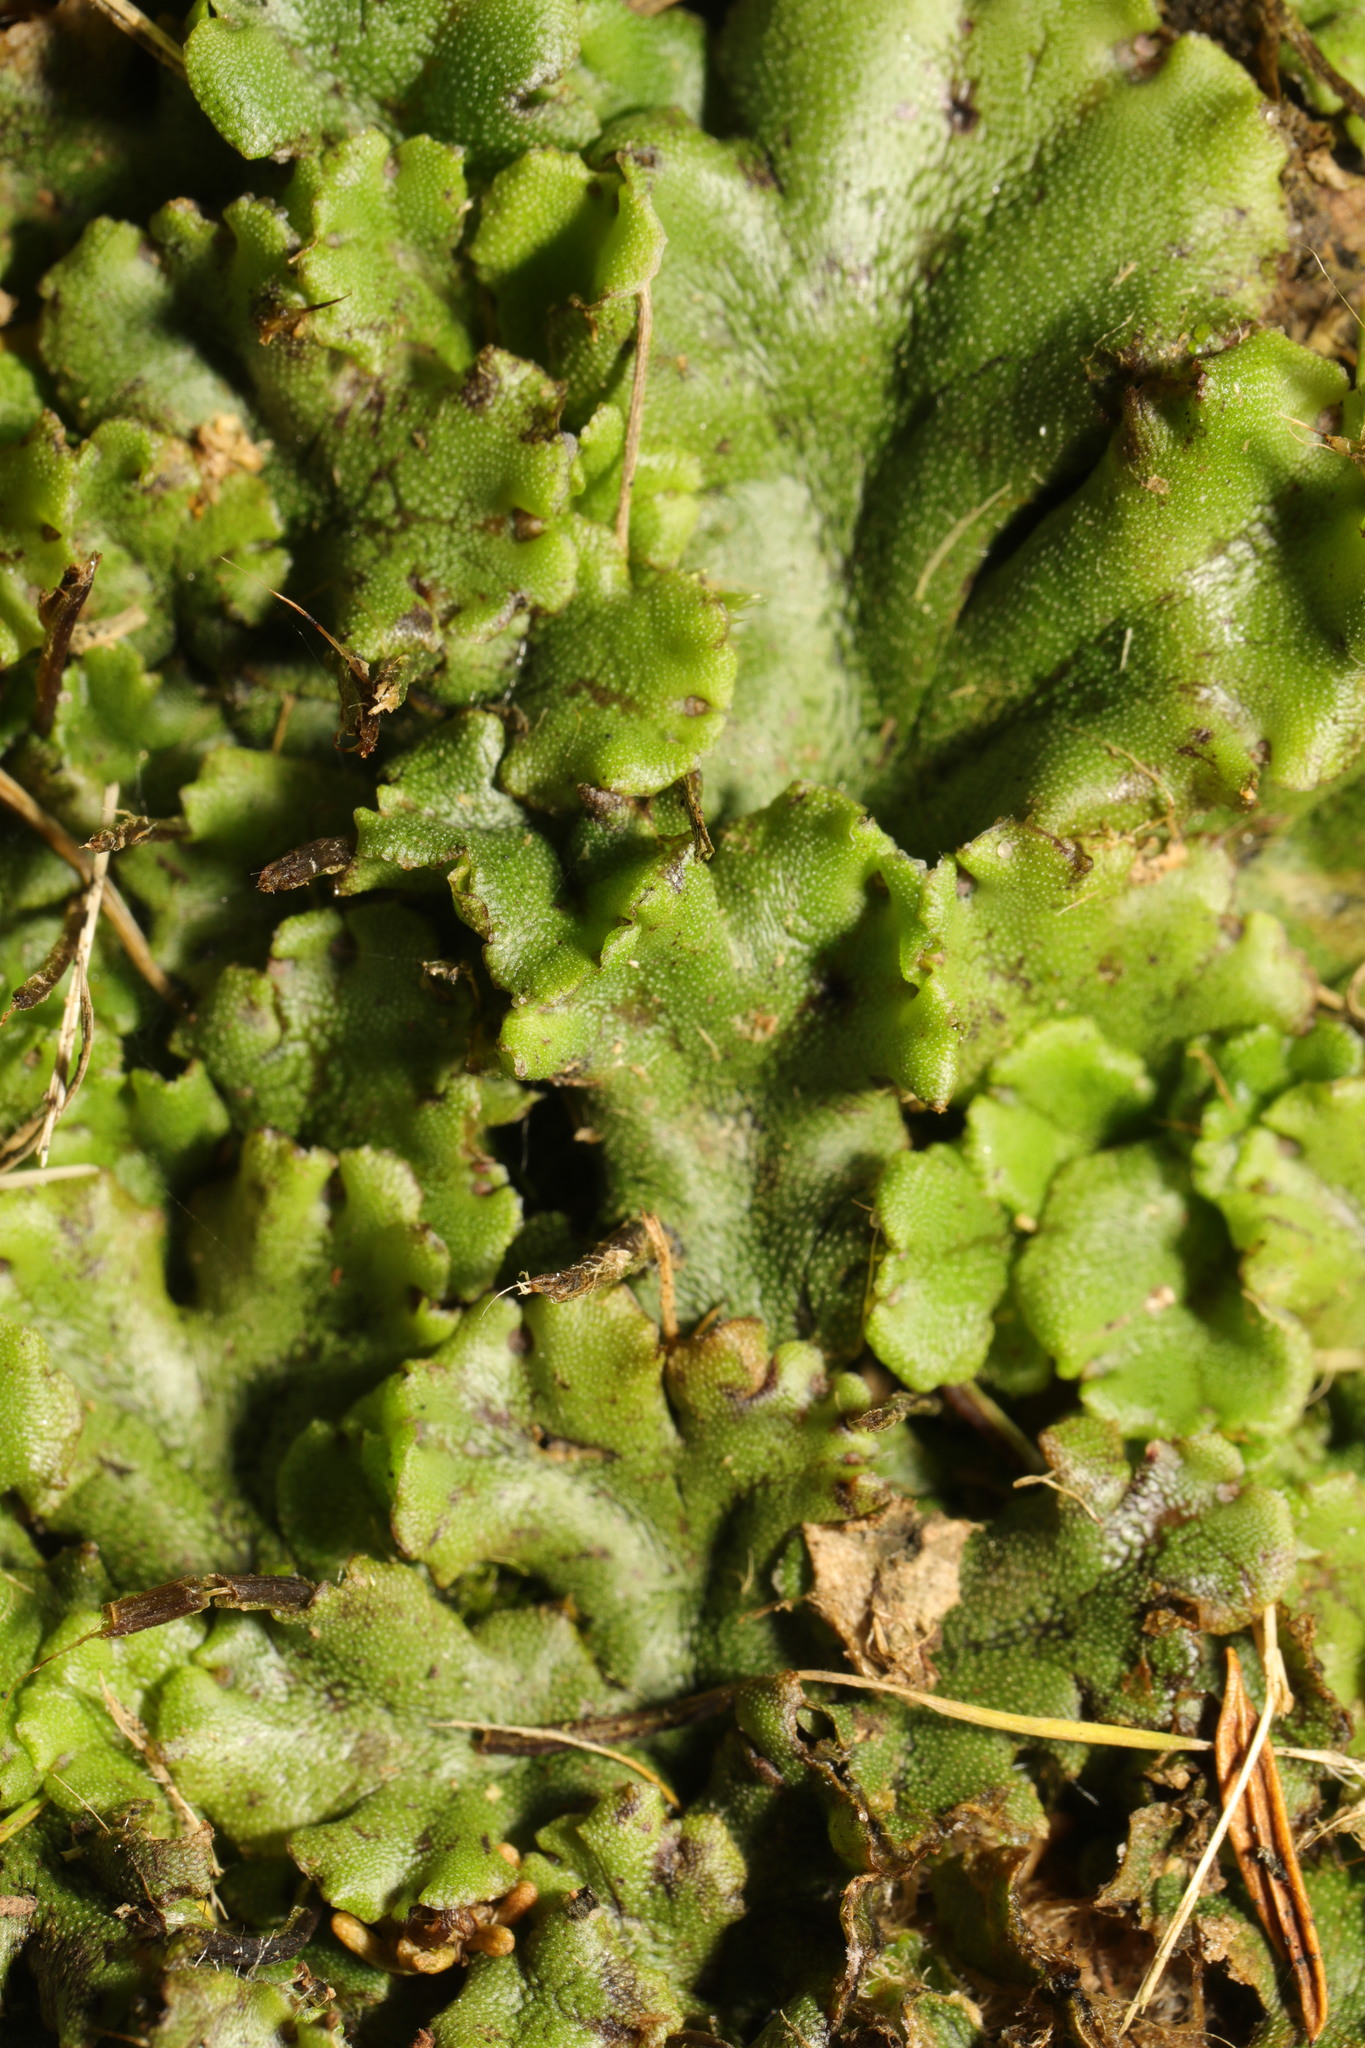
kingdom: Plantae
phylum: Marchantiophyta
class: Marchantiopsida
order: Marchantiales
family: Marchantiaceae
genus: Marchantia
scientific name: Marchantia polymorpha
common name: Common liverwort
